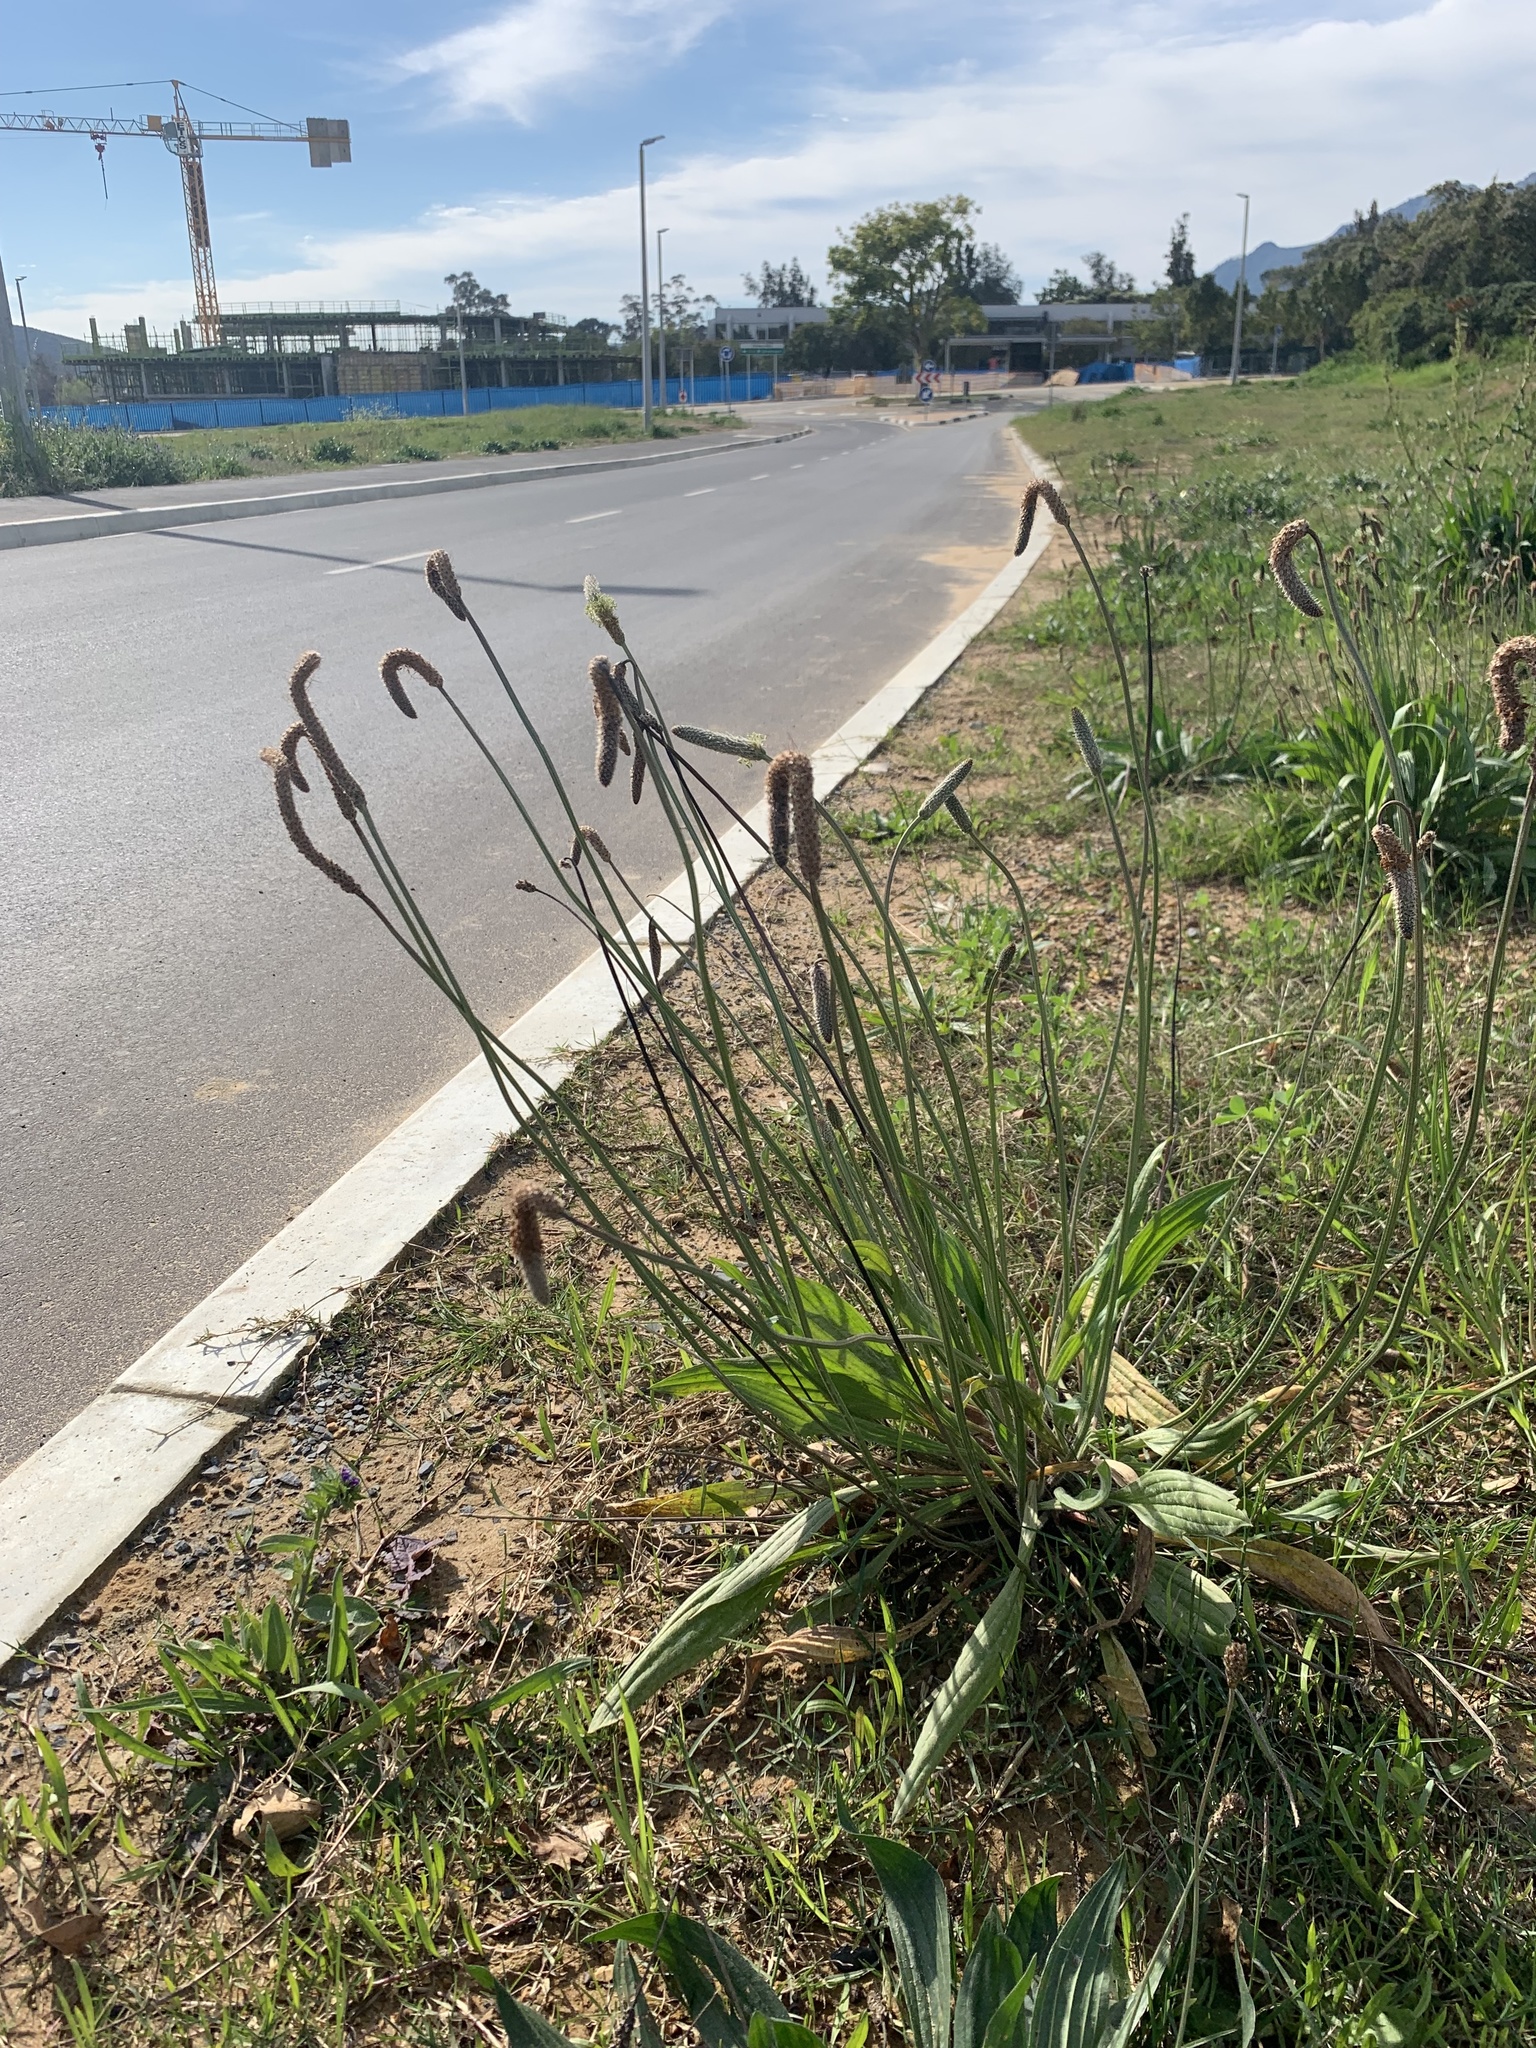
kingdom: Plantae
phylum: Tracheophyta
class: Magnoliopsida
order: Lamiales
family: Plantaginaceae
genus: Plantago
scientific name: Plantago lanceolata
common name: Ribwort plantain
